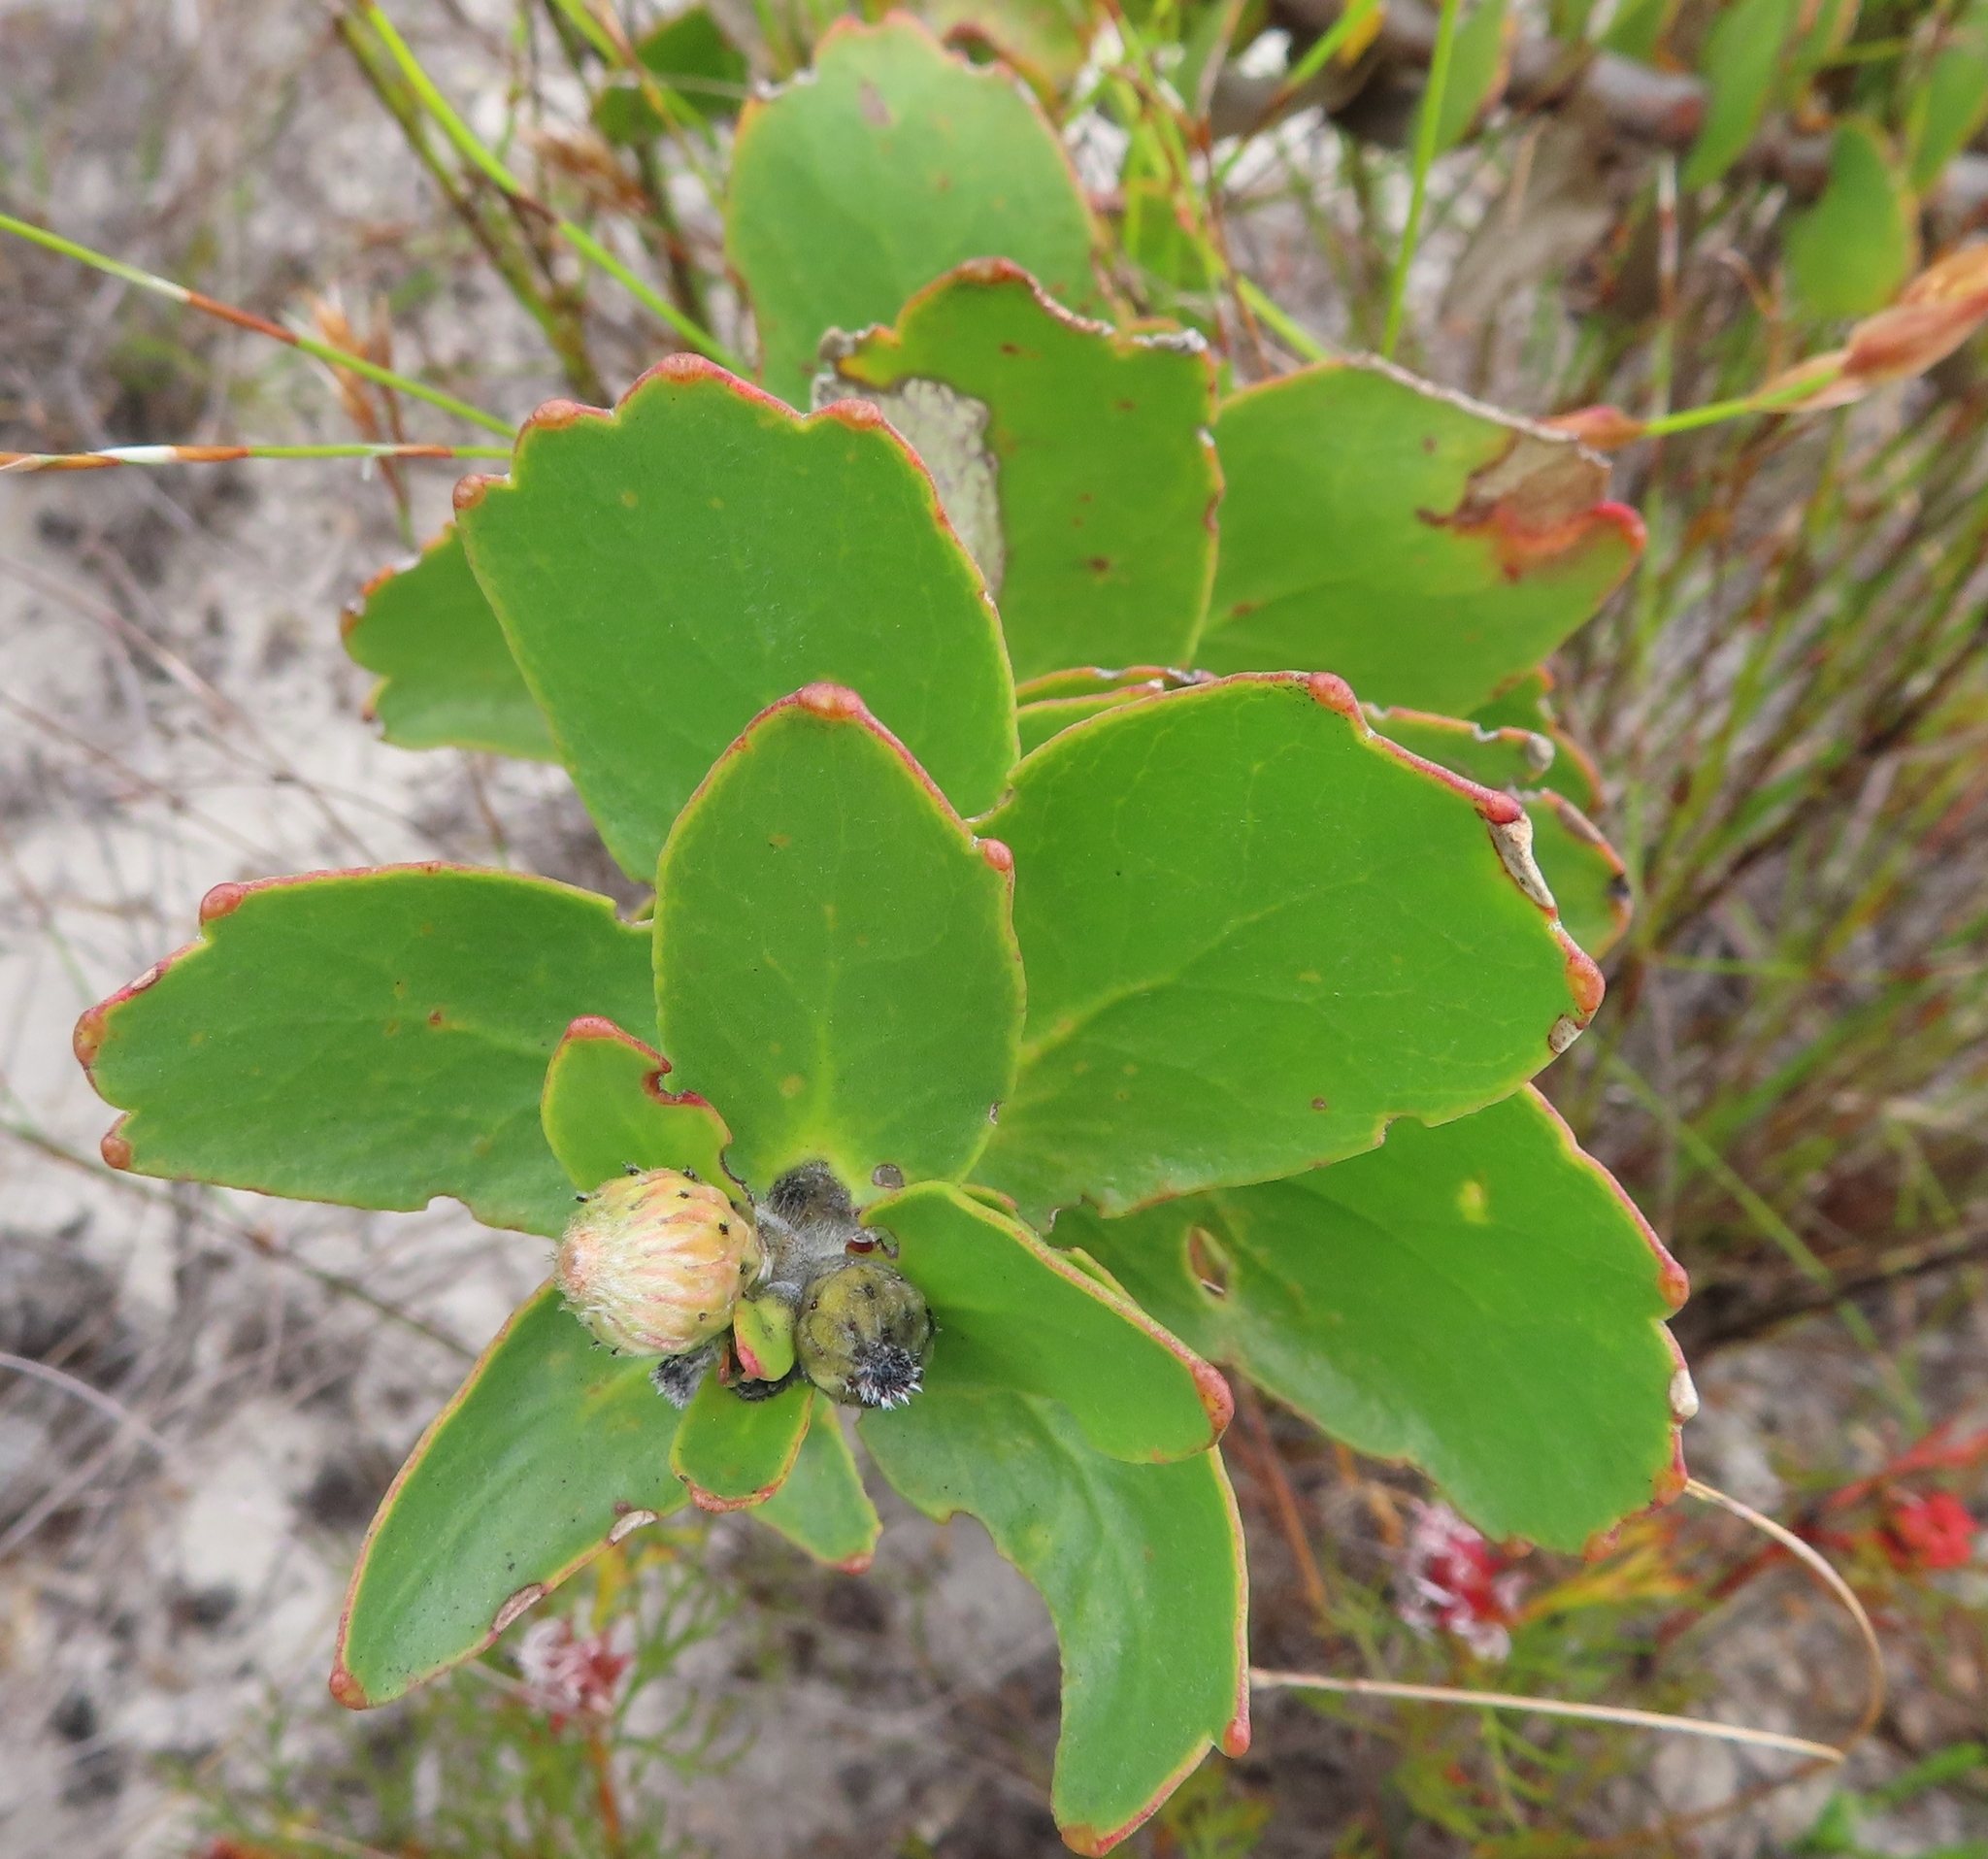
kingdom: Plantae
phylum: Tracheophyta
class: Magnoliopsida
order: Proteales
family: Proteaceae
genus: Leucospermum
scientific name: Leucospermum cordifolium
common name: Red pincushion-protea
